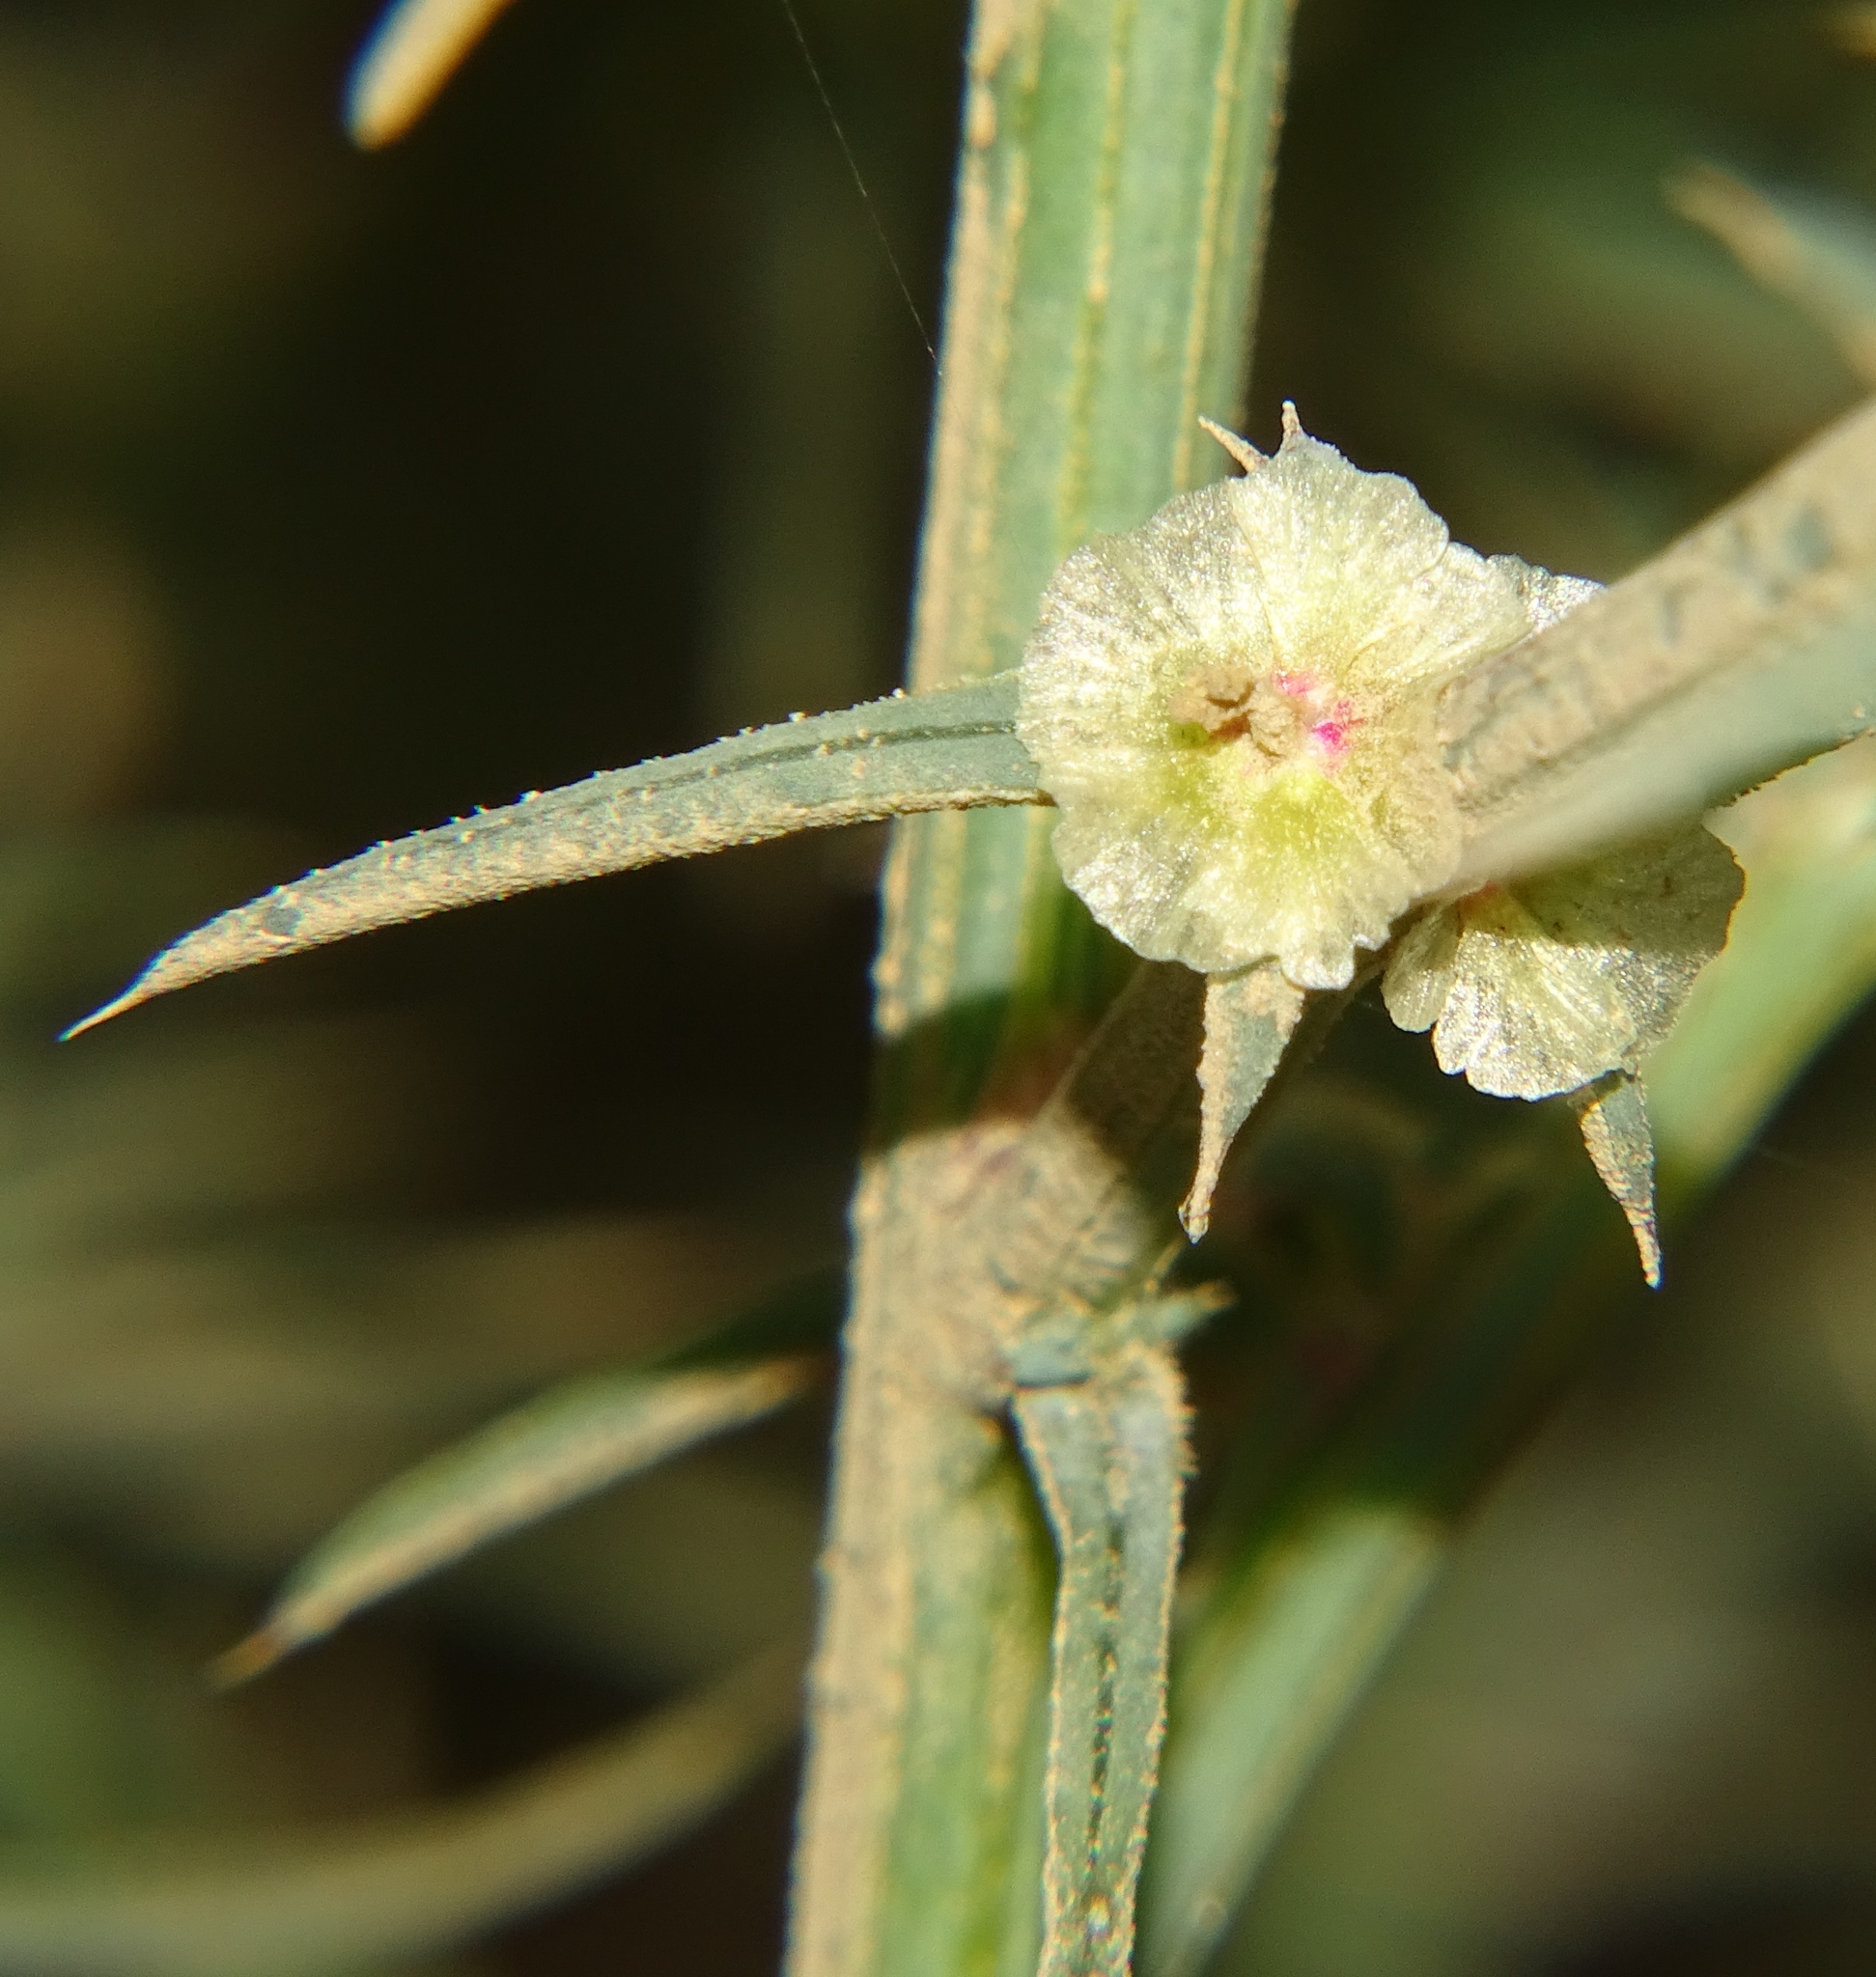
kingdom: Plantae
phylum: Tracheophyta
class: Magnoliopsida
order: Caryophyllales
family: Amaranthaceae
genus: Salsola
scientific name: Salsola australis
